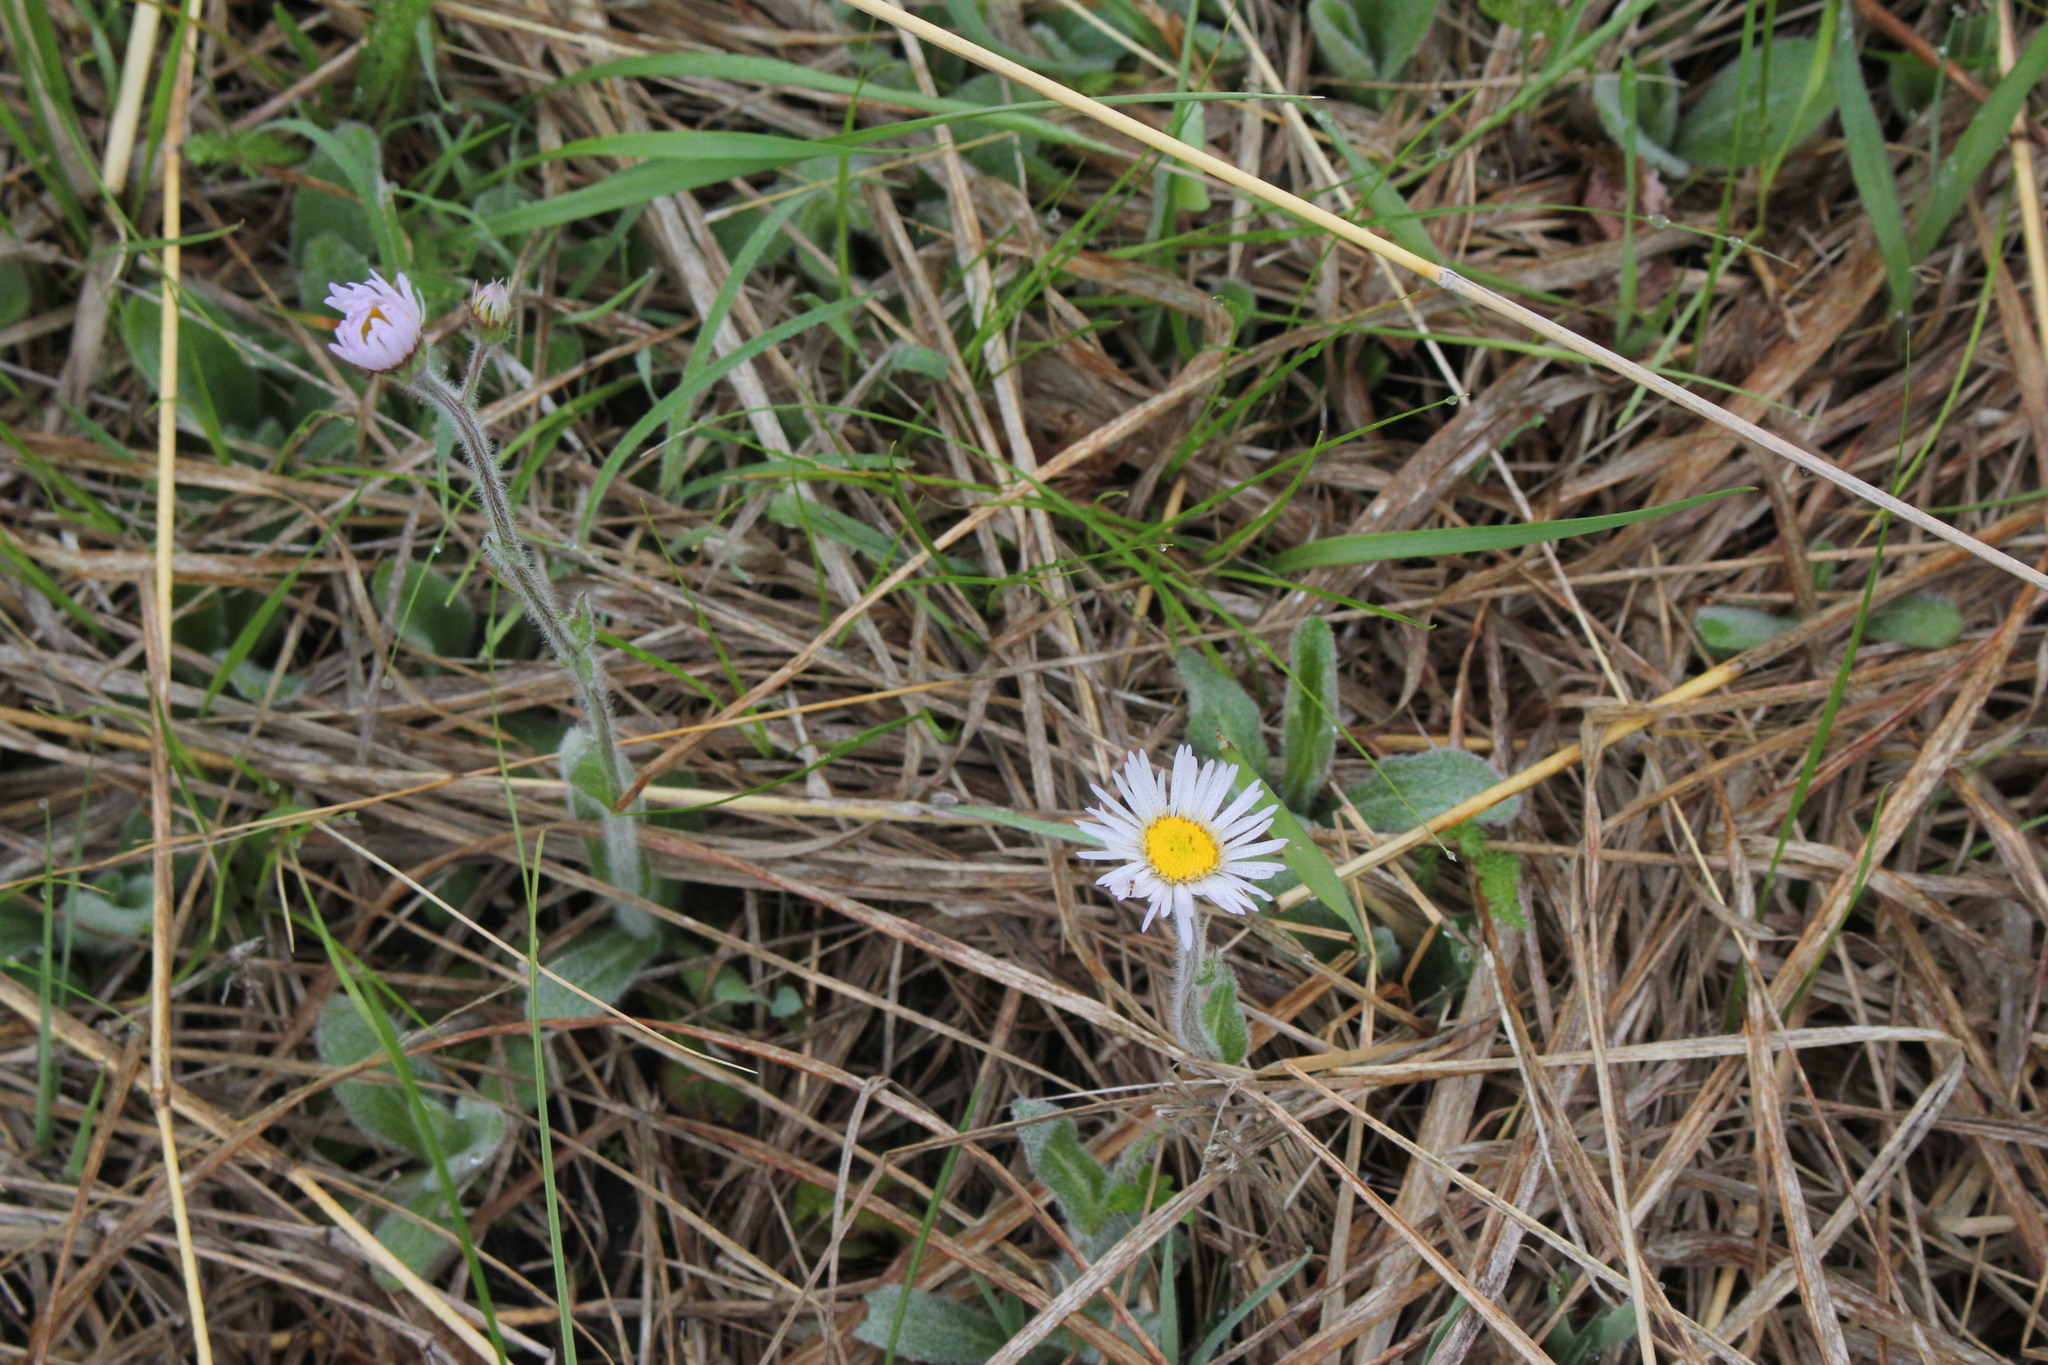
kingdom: Plantae
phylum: Tracheophyta
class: Magnoliopsida
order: Asterales
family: Asteraceae
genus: Erigeron
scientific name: Erigeron pulchellus
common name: Hairy fleabane
